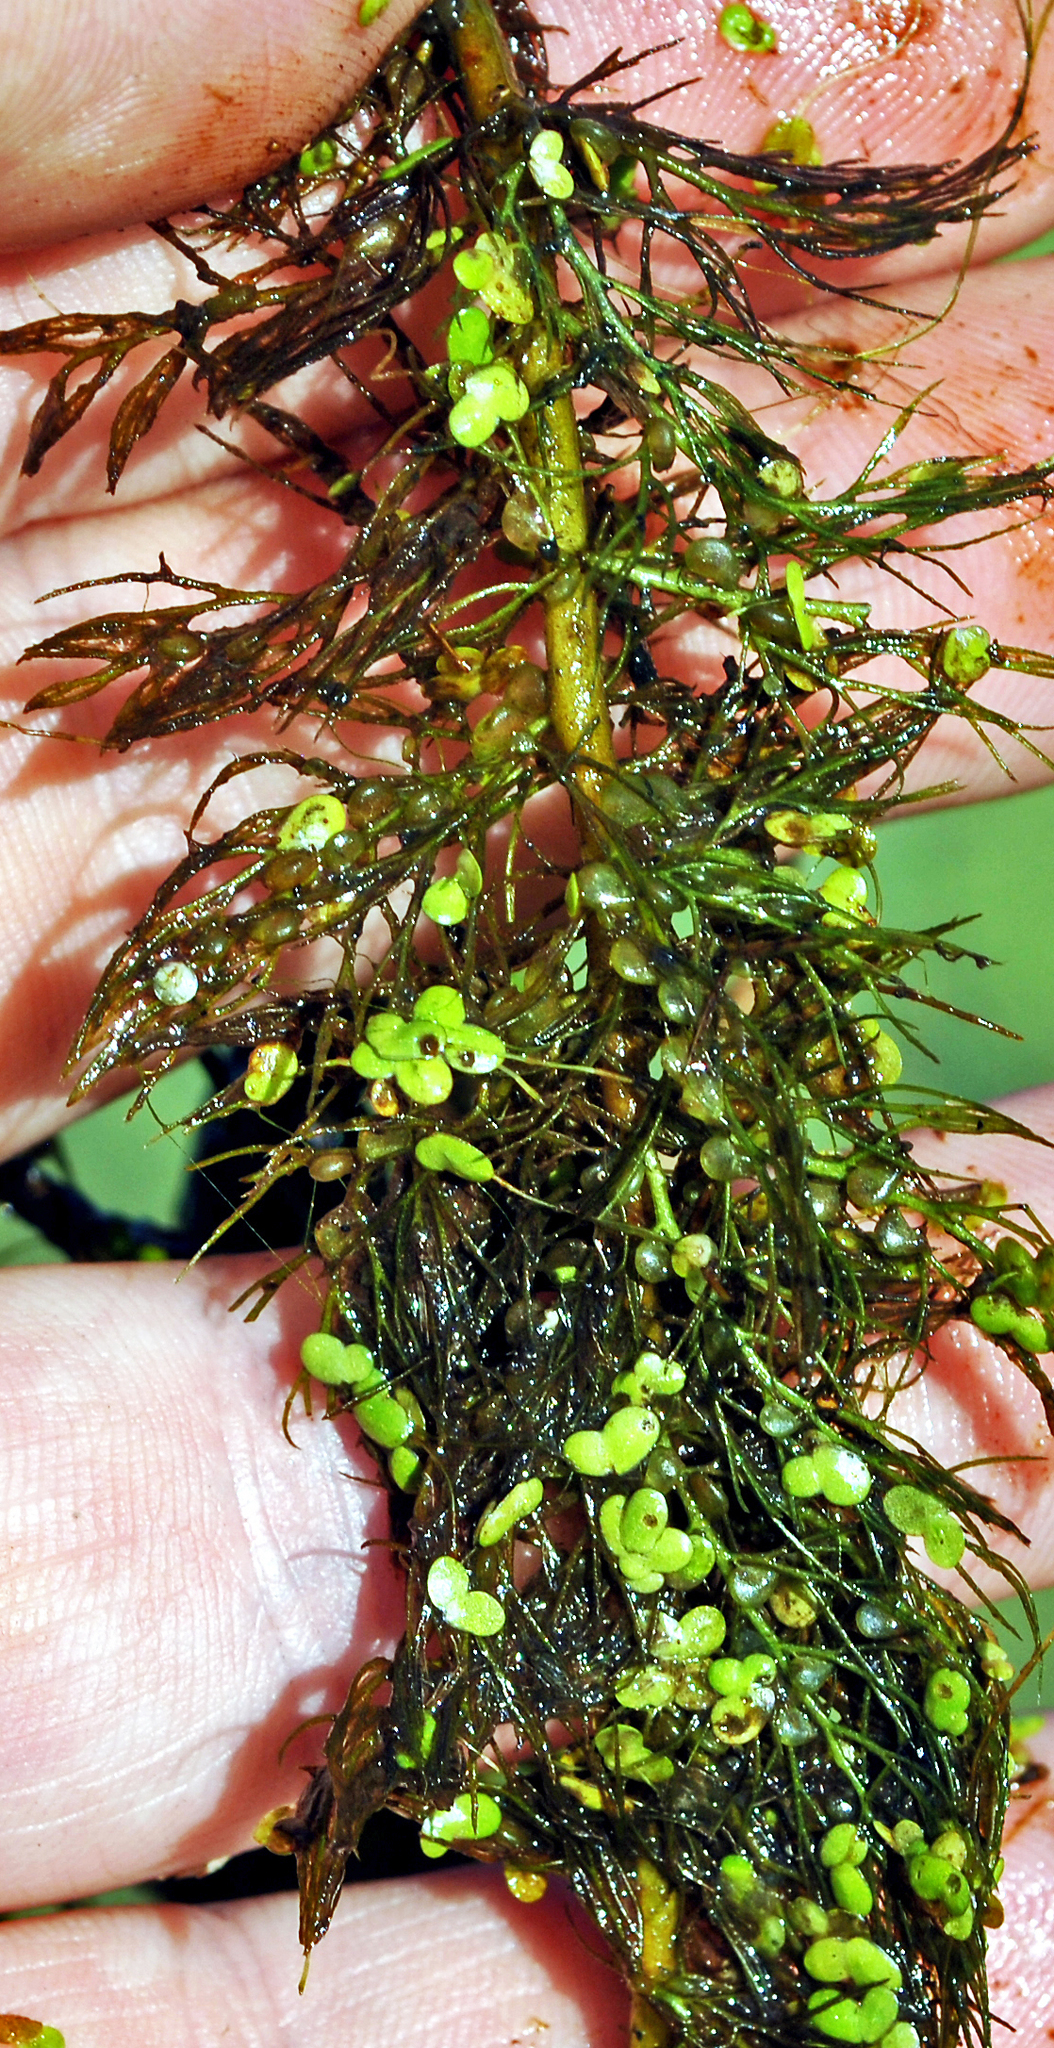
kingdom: Plantae
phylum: Tracheophyta
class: Magnoliopsida
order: Lamiales
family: Lentibulariaceae
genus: Utricularia
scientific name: Utricularia macrorhiza
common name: Common bladderwort
